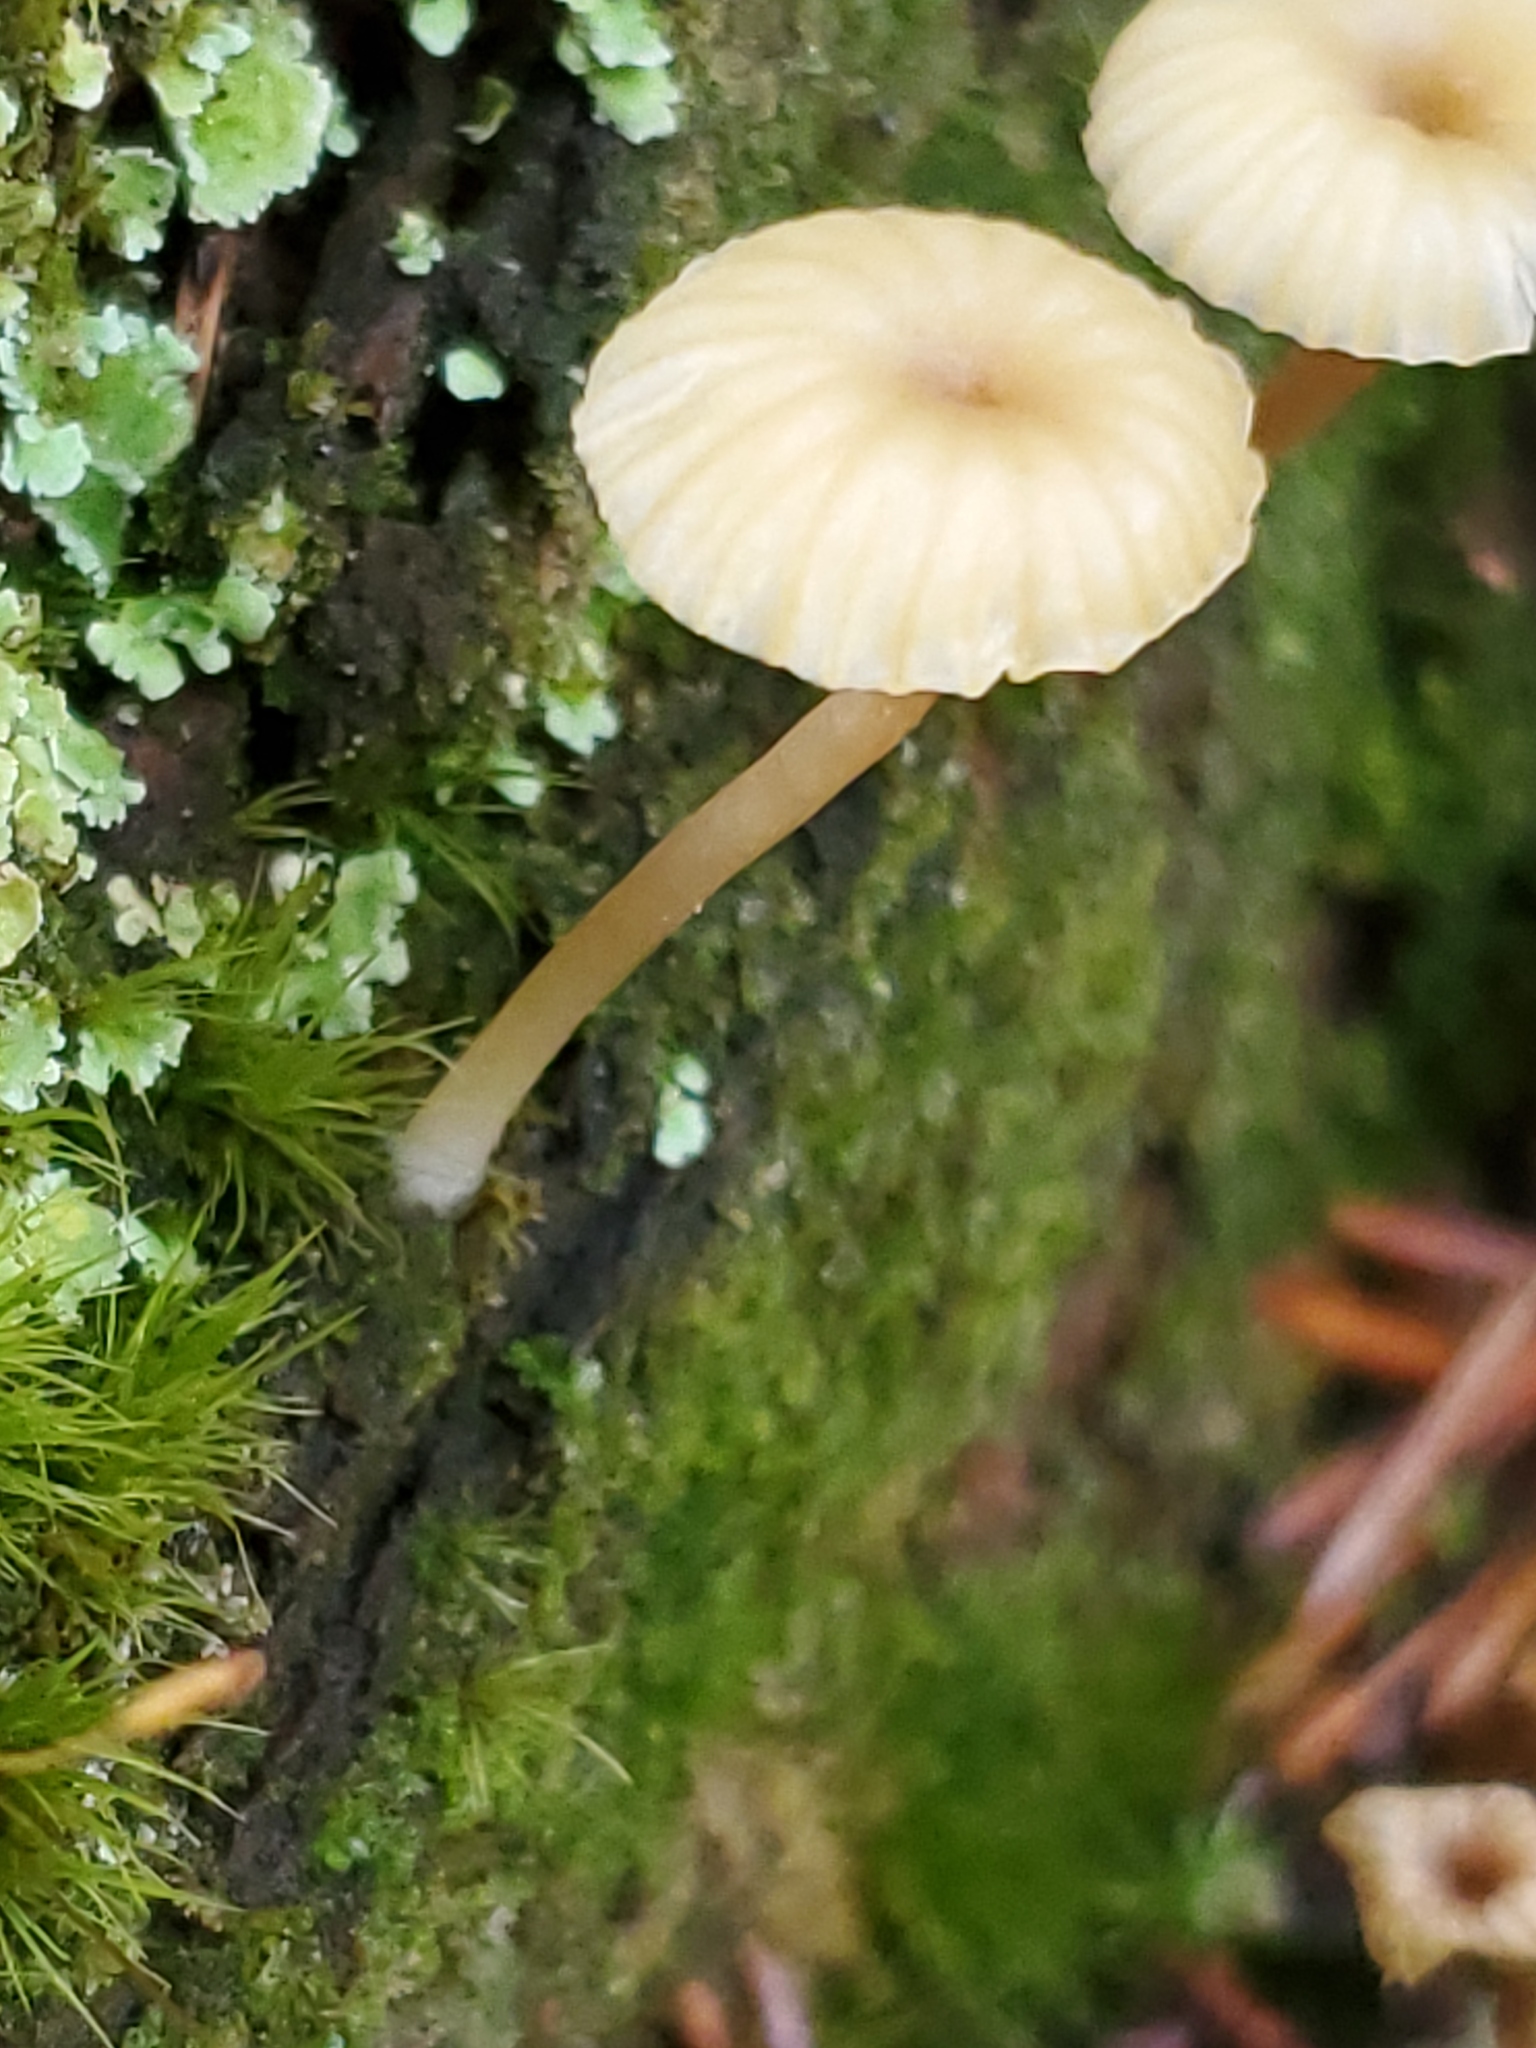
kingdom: Fungi
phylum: Basidiomycota
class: Agaricomycetes
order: Agaricales
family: Hygrophoraceae
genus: Lichenomphalia
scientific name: Lichenomphalia
